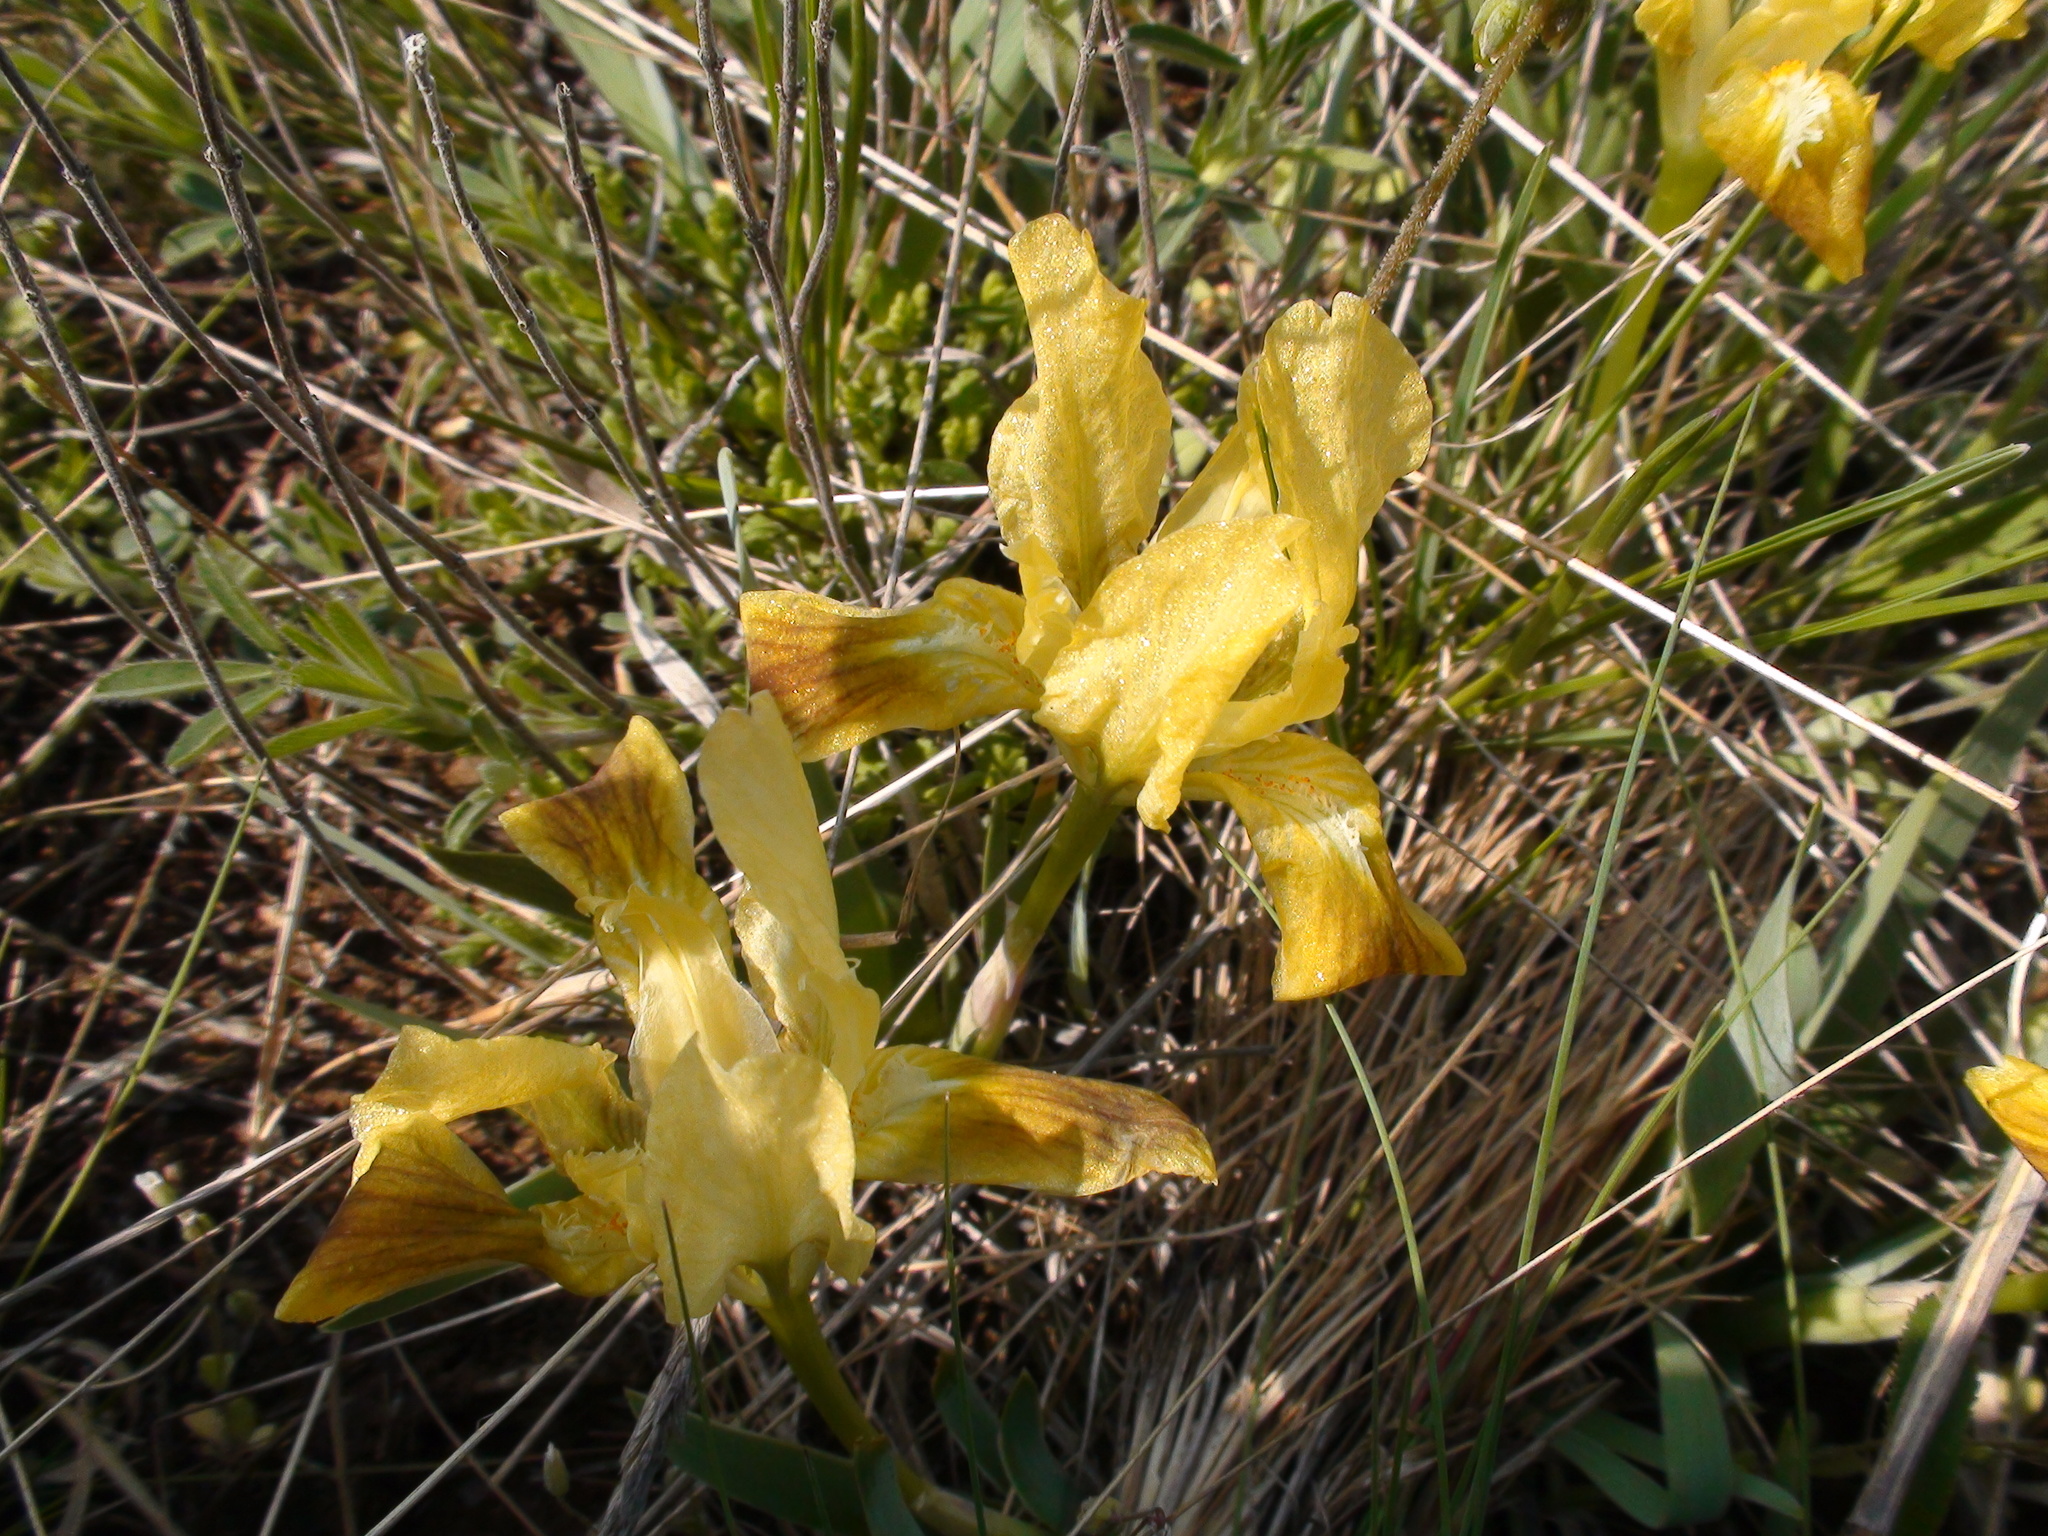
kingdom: Plantae
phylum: Tracheophyta
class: Liliopsida
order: Asparagales
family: Iridaceae
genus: Iris
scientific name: Iris pumila
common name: Dwarf iris
